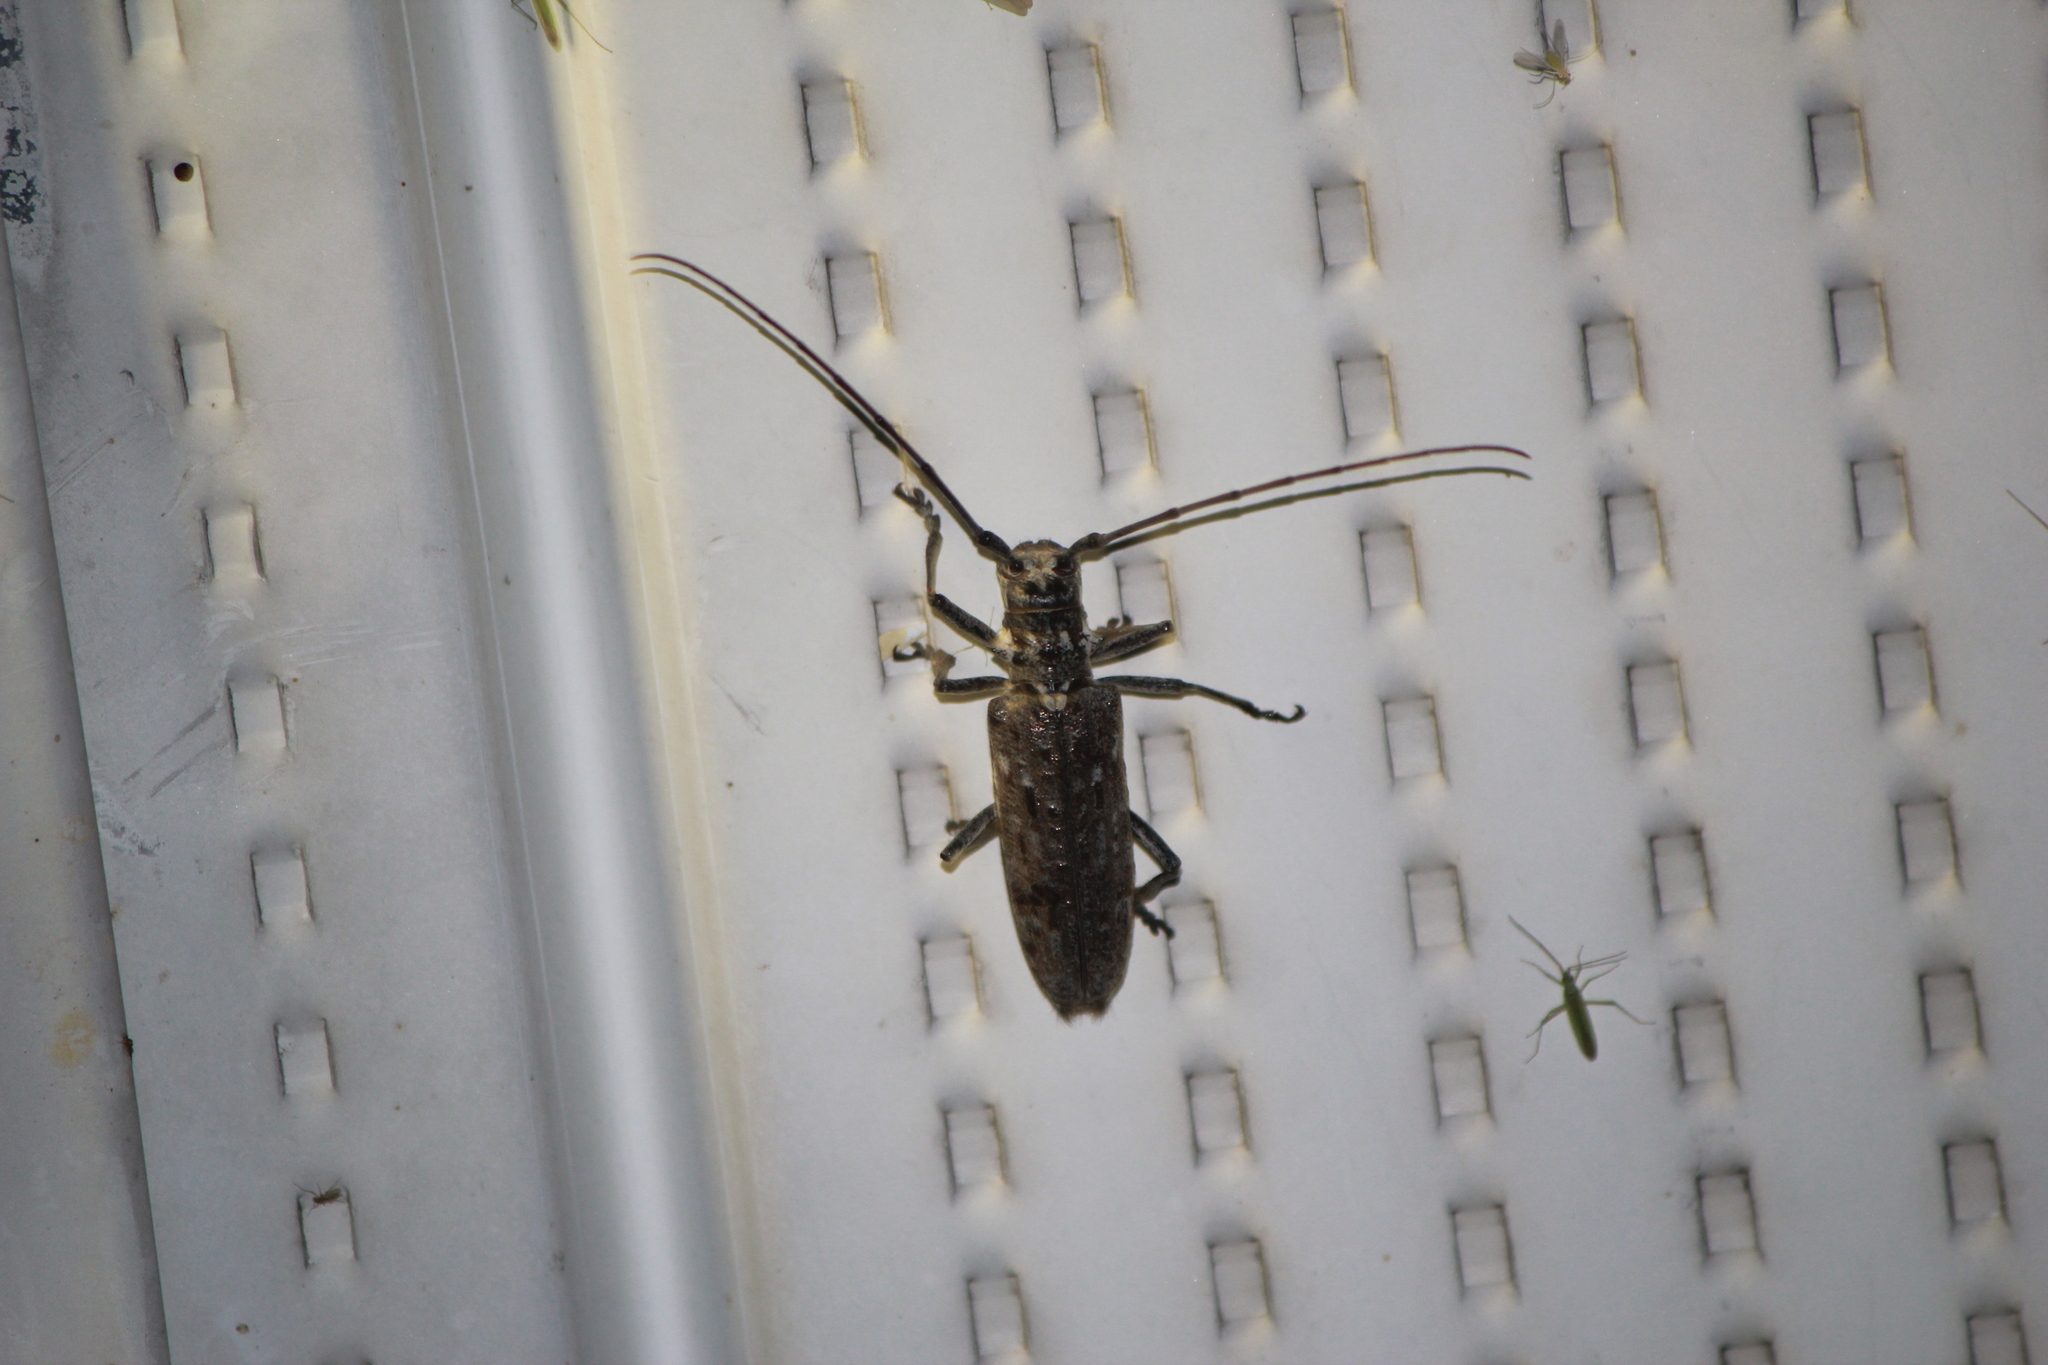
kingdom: Animalia
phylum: Arthropoda
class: Insecta
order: Coleoptera
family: Cerambycidae
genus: Monochamus
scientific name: Monochamus notatus
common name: Northeastern pine sawyer beetle
